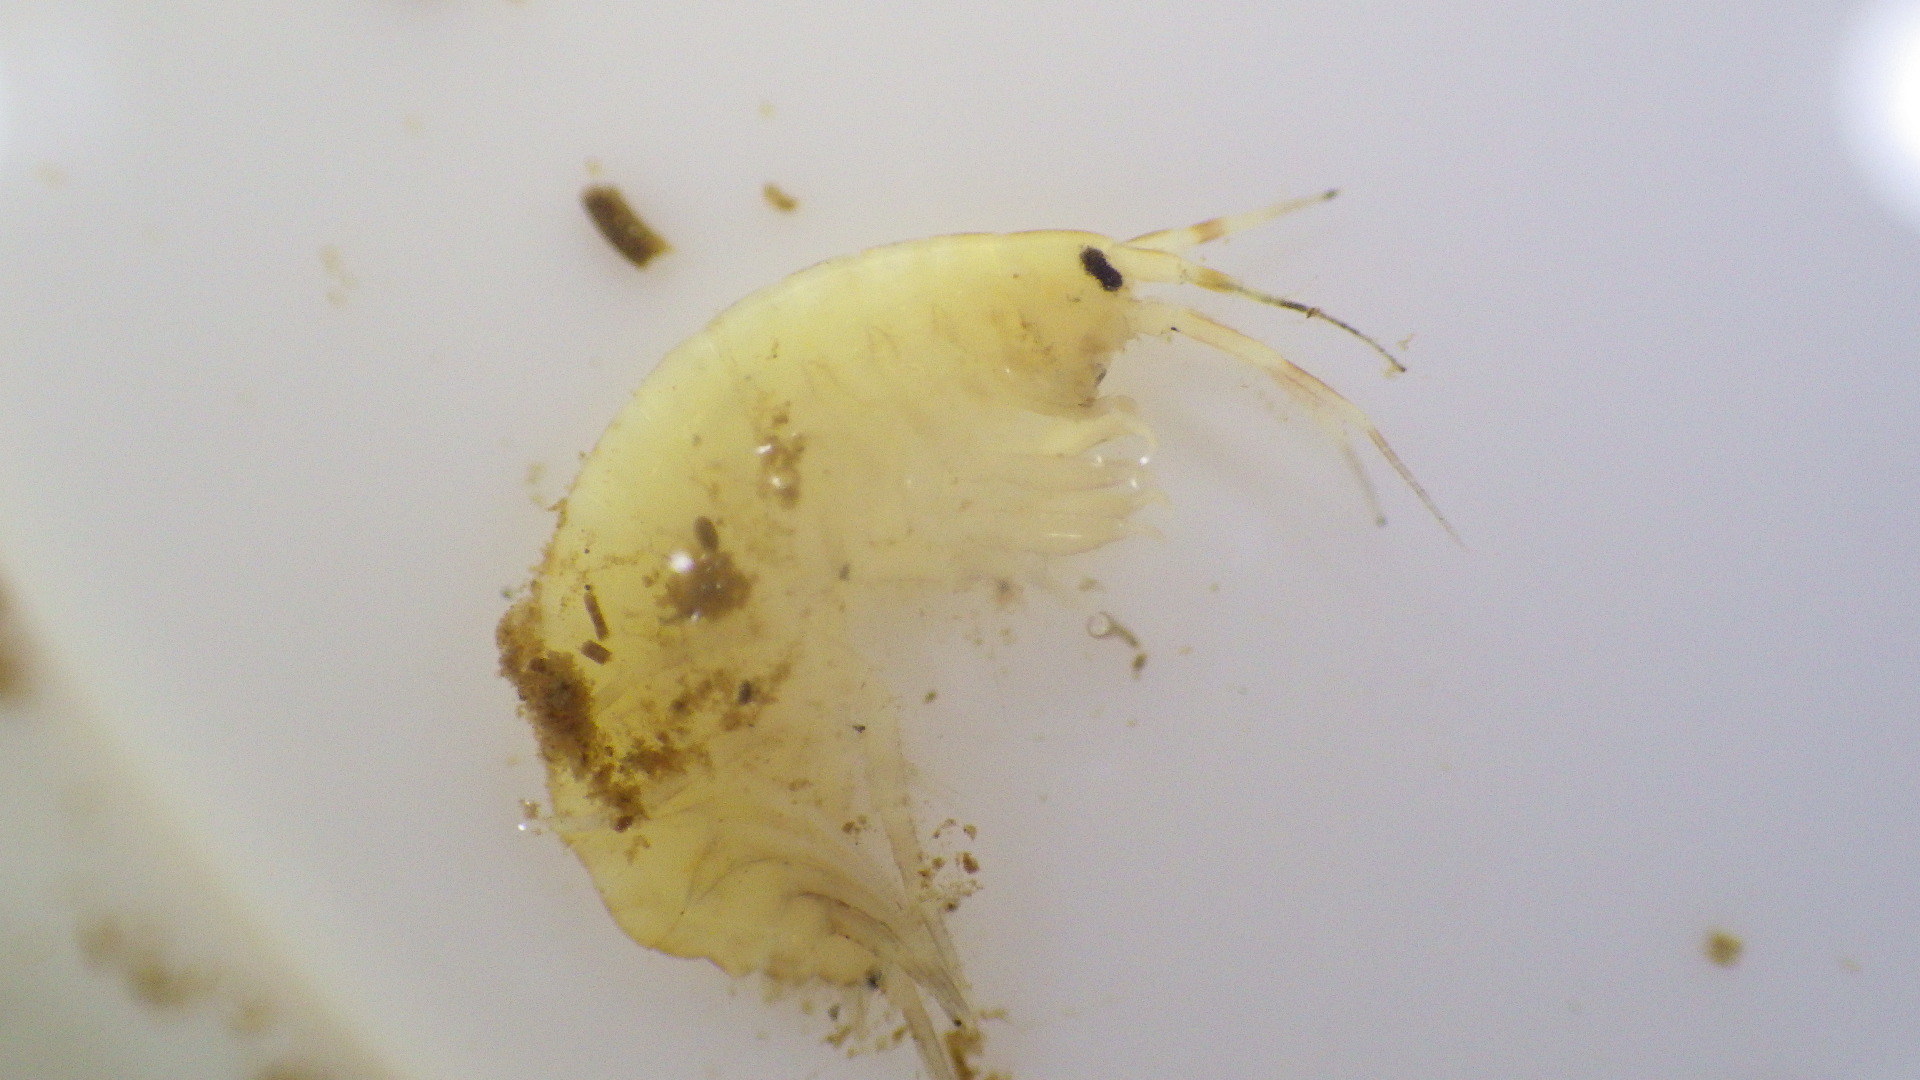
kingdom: Animalia
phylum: Arthropoda
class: Malacostraca
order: Amphipoda
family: Gammaridae
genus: Gammarus
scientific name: Gammarus fasciatus
